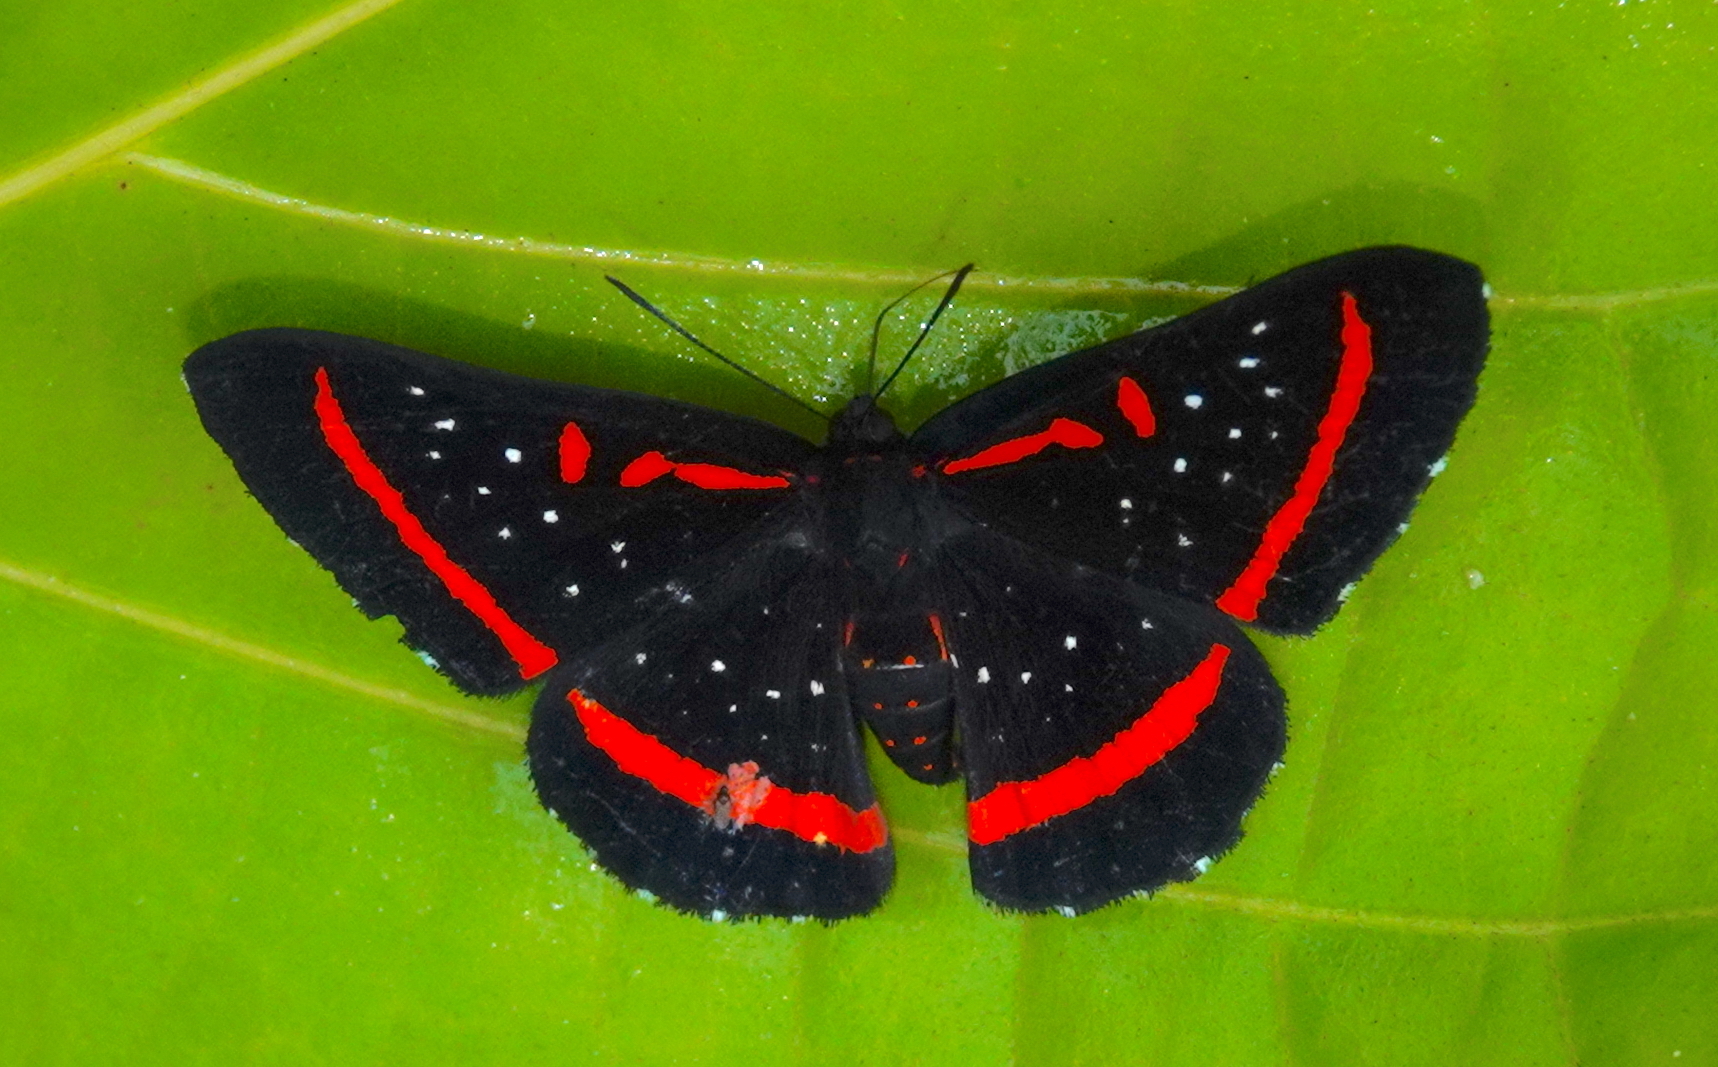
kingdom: Animalia
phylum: Arthropoda
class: Insecta
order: Lepidoptera
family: Riodinidae
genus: Amarynthis
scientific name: Amarynthis meneria
